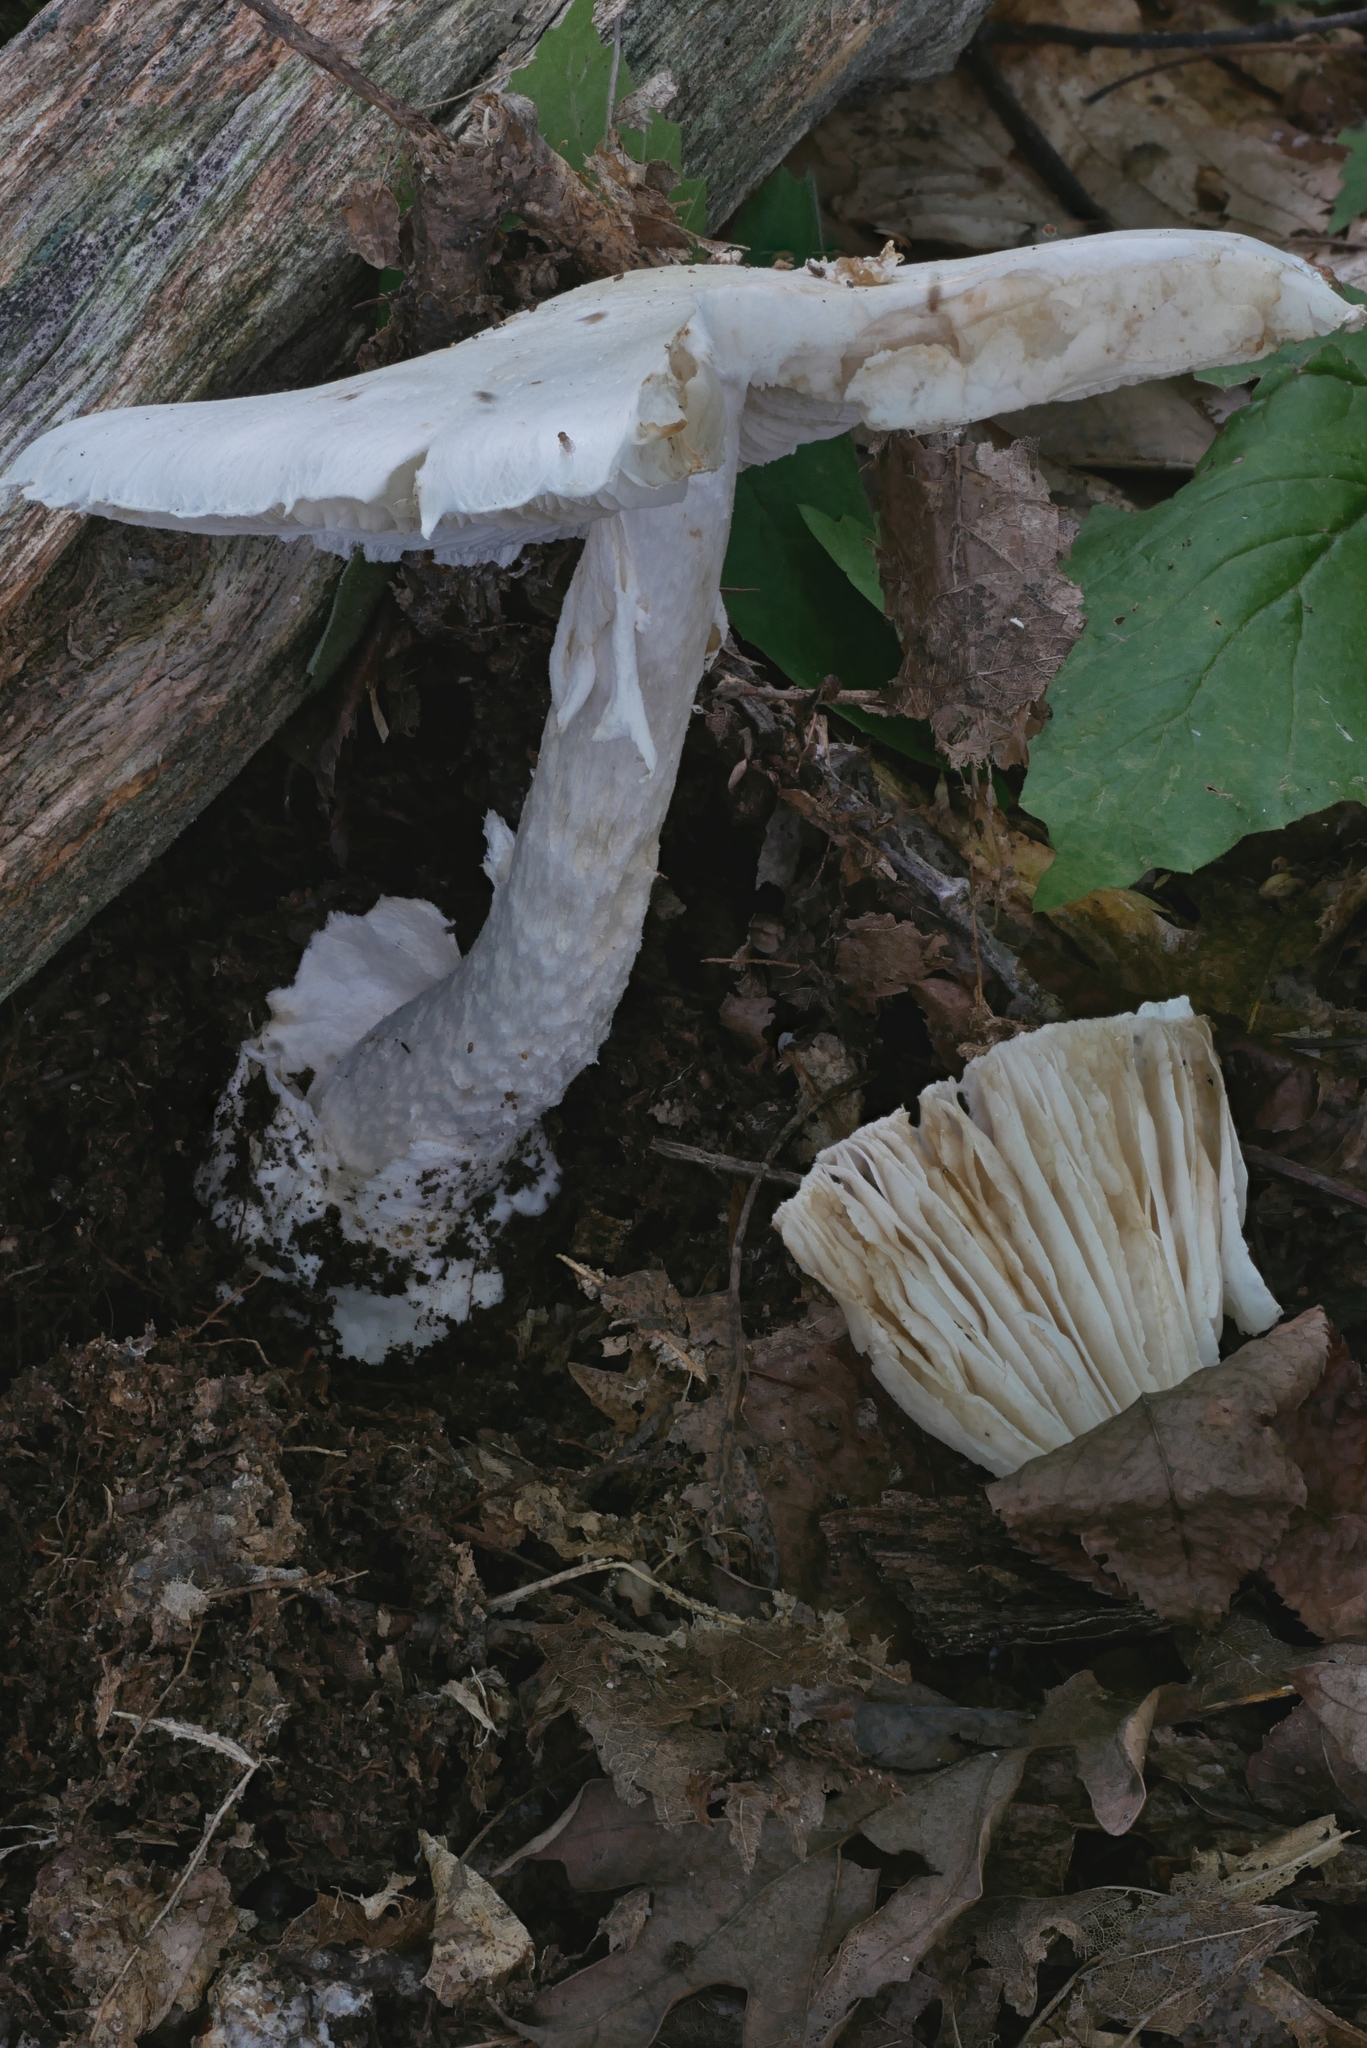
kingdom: Fungi
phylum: Basidiomycota
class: Agaricomycetes
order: Agaricales
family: Amanitaceae
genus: Amanita
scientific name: Amanita amerivirosa
